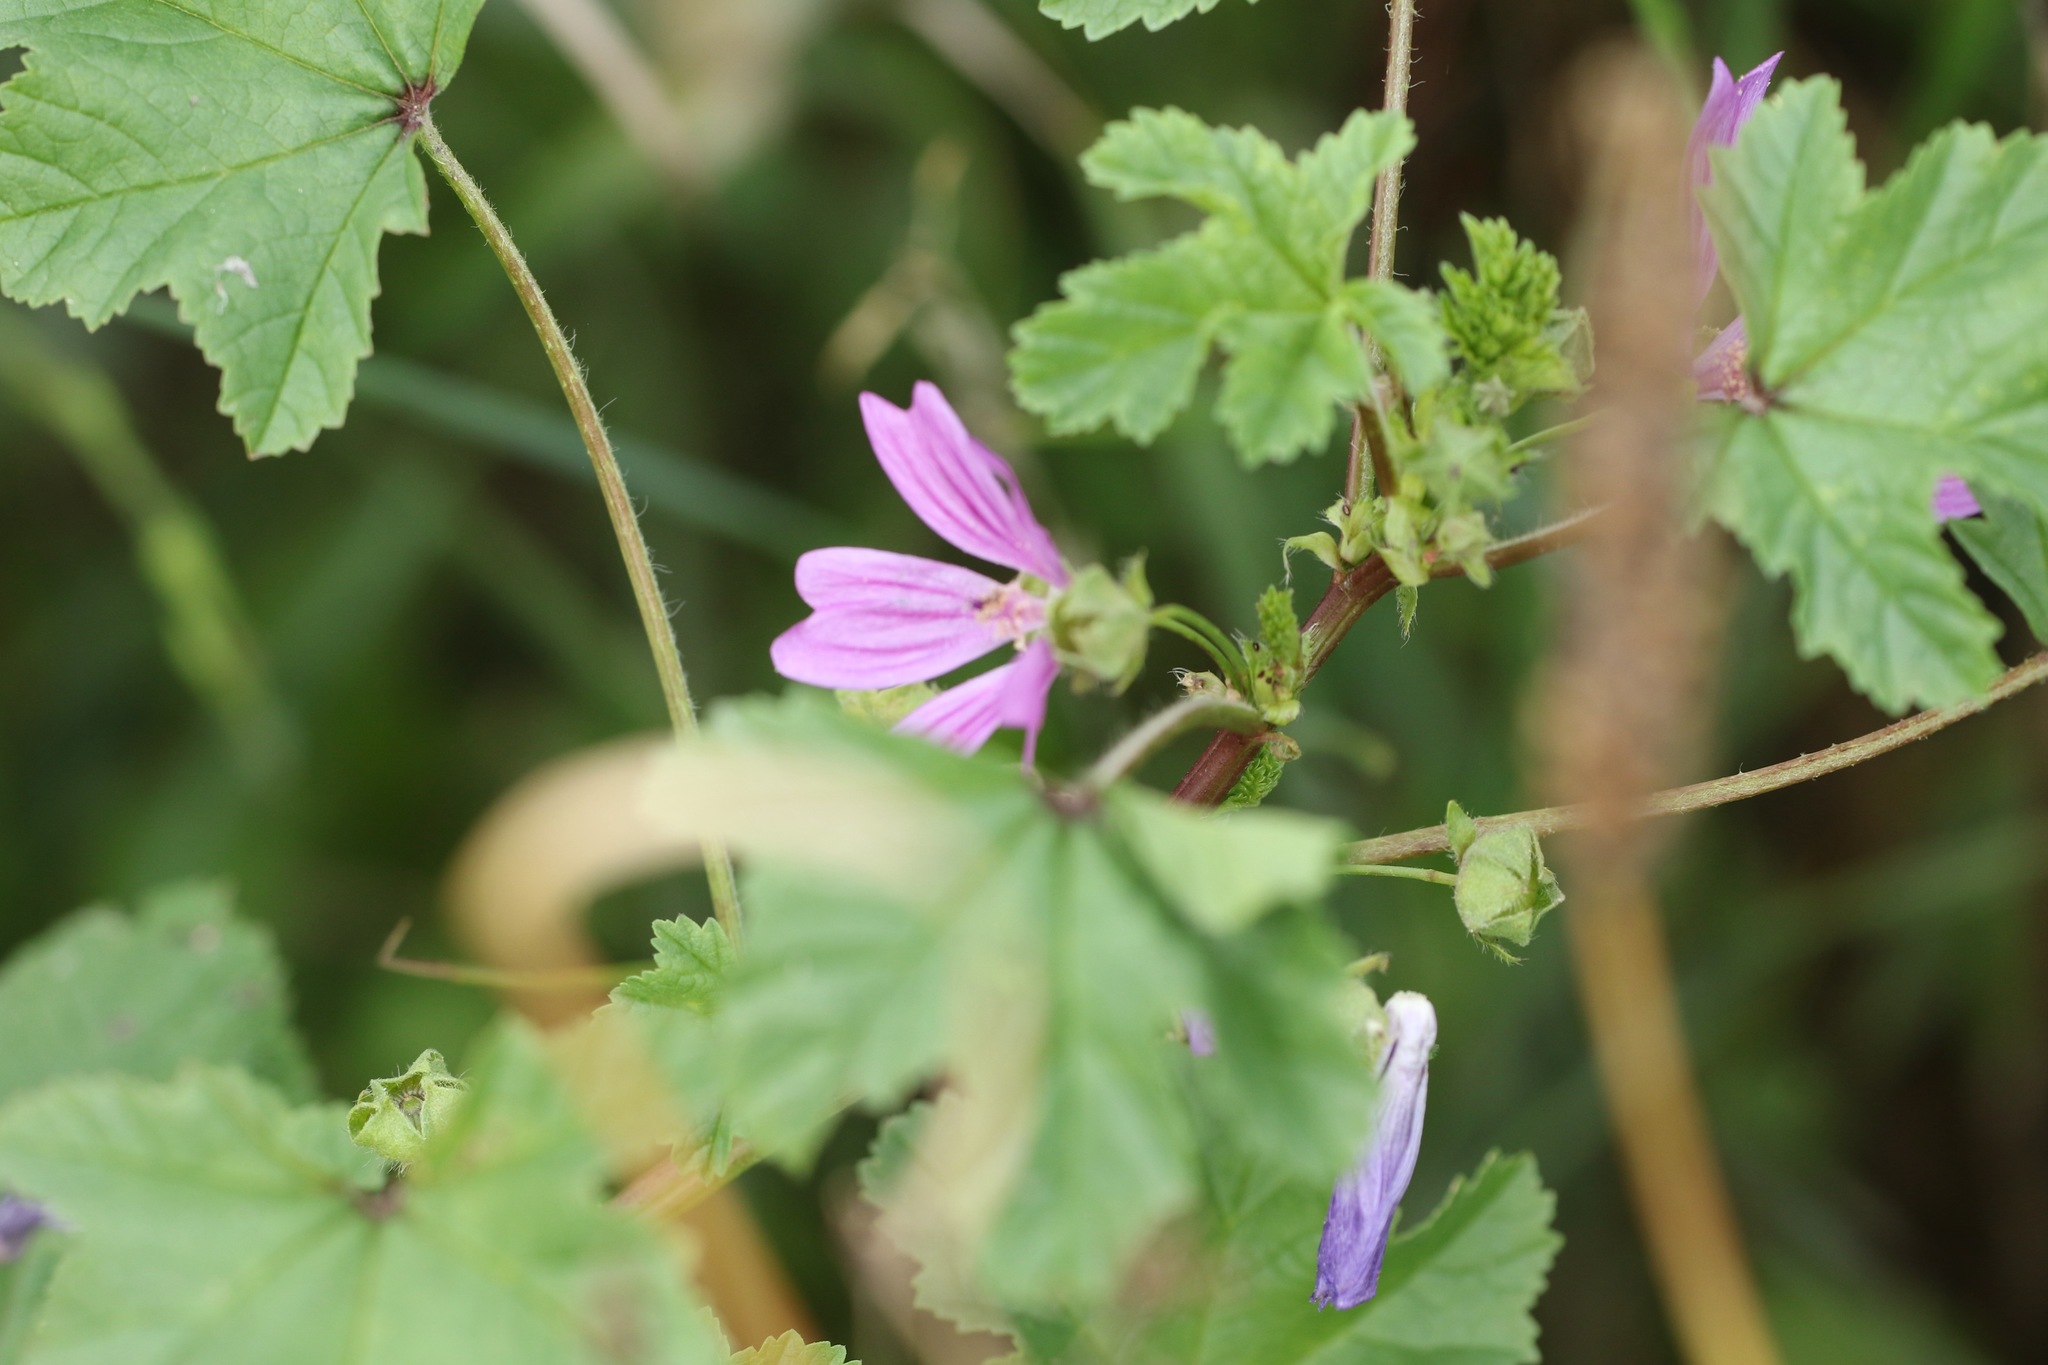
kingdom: Plantae
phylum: Tracheophyta
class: Magnoliopsida
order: Malvales
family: Malvaceae
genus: Malva
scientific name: Malva sylvestris
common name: Common mallow
